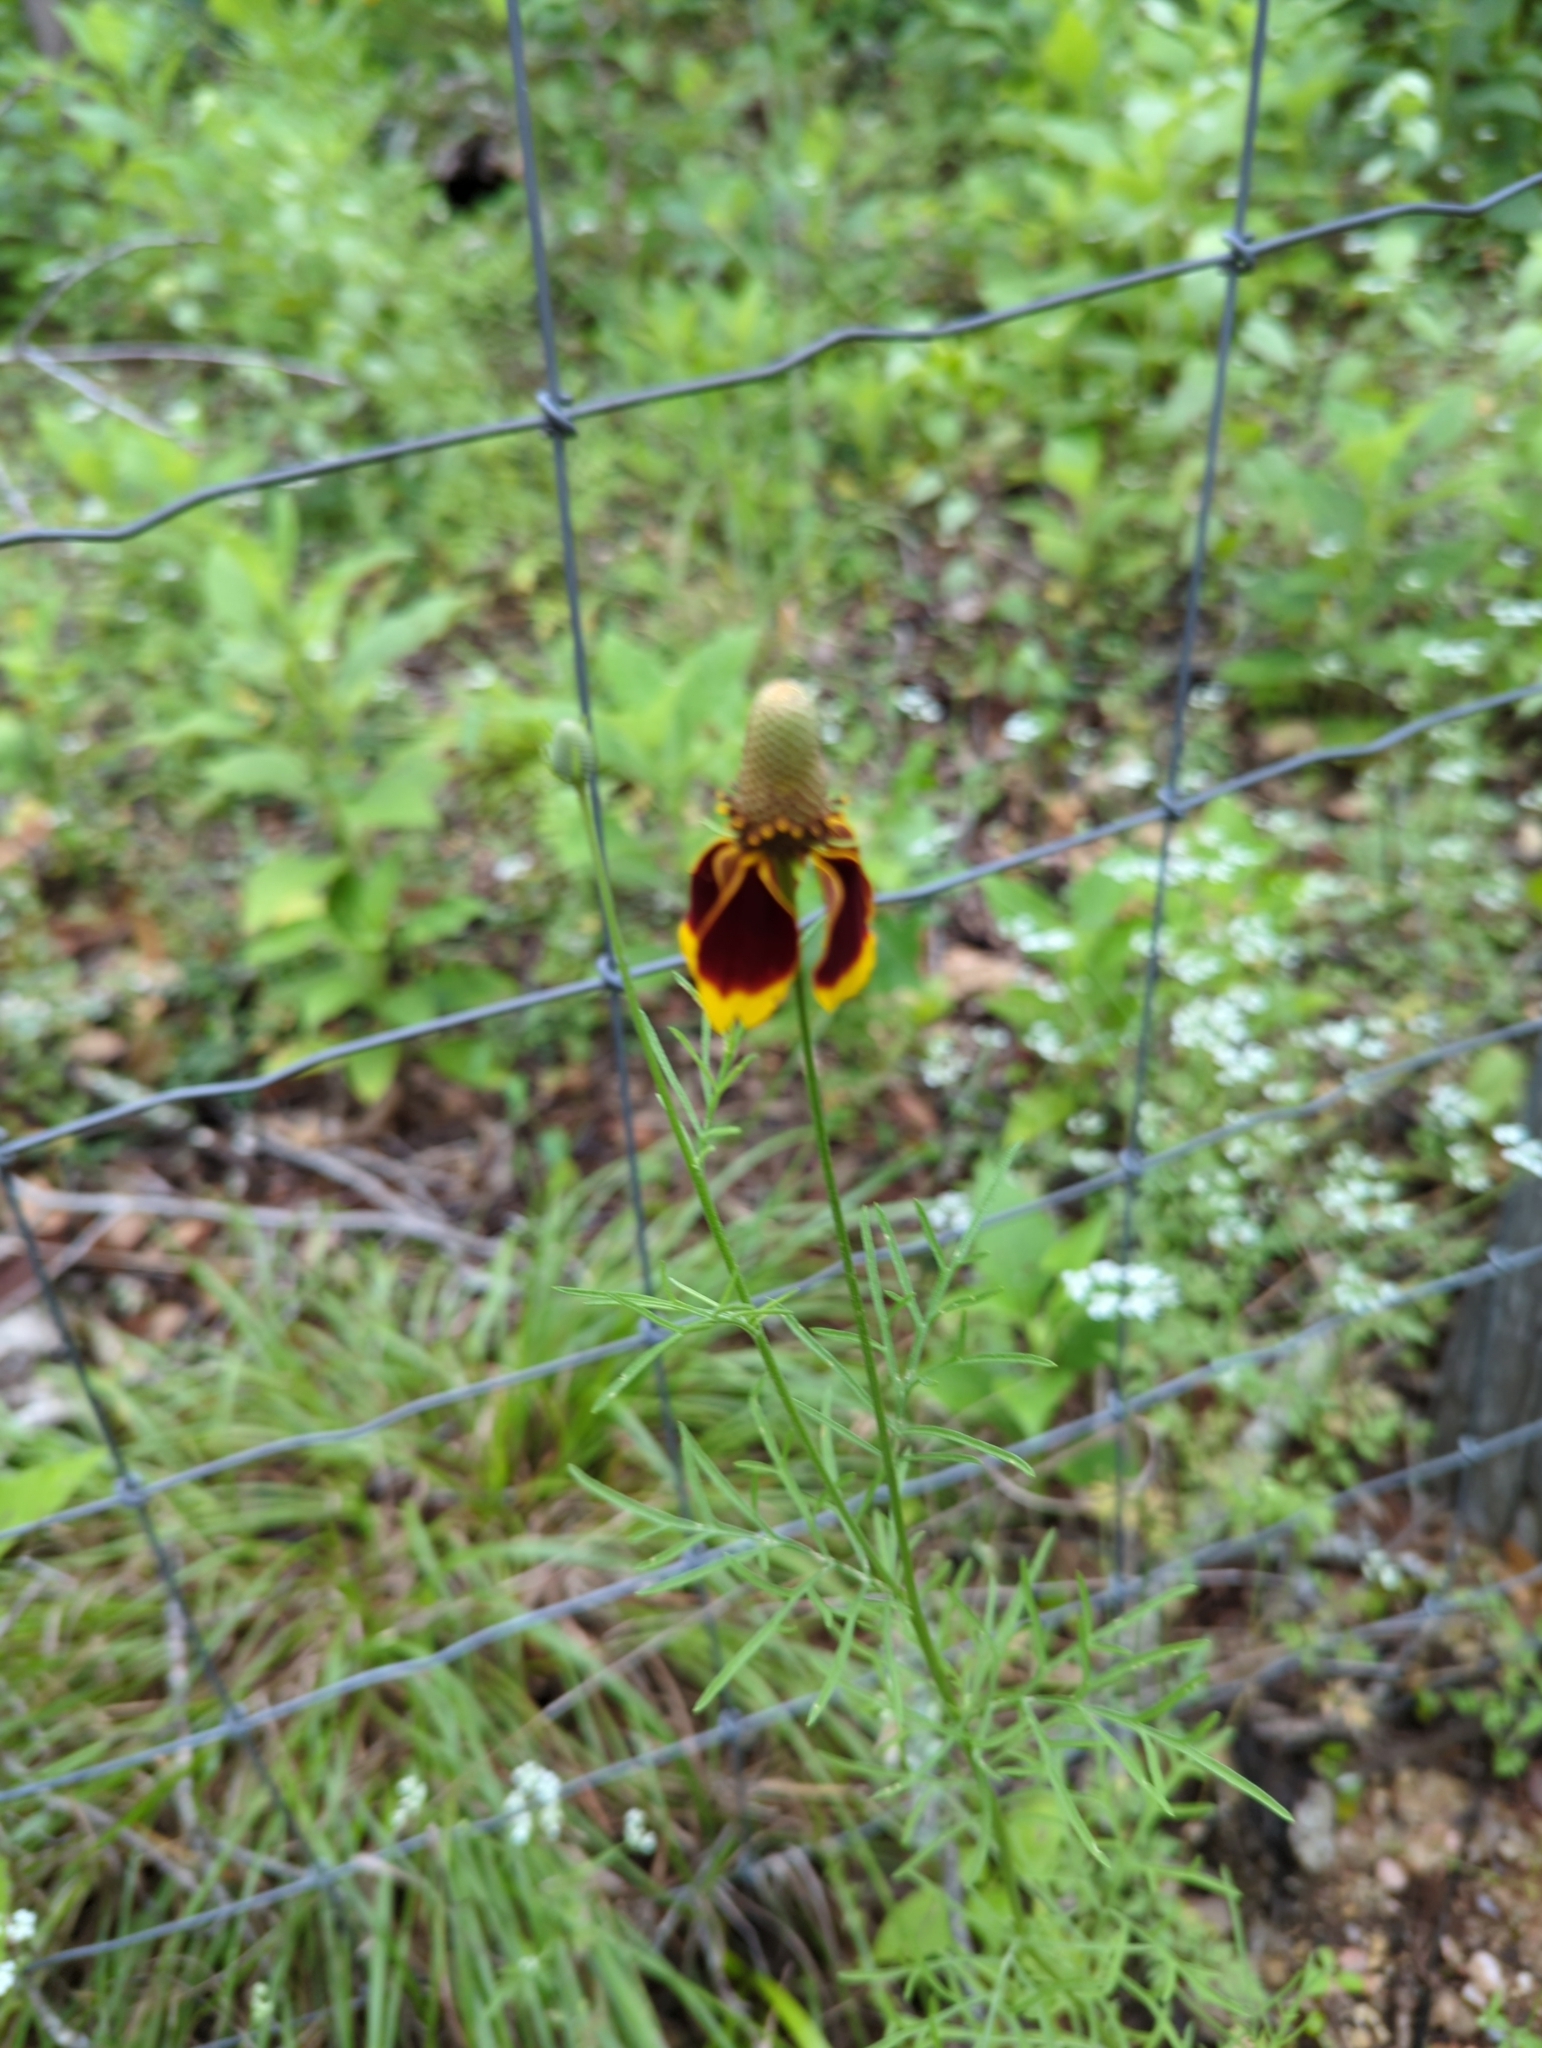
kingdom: Plantae
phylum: Tracheophyta
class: Magnoliopsida
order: Asterales
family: Asteraceae
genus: Ratibida
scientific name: Ratibida columnifera
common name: Prairie coneflower
